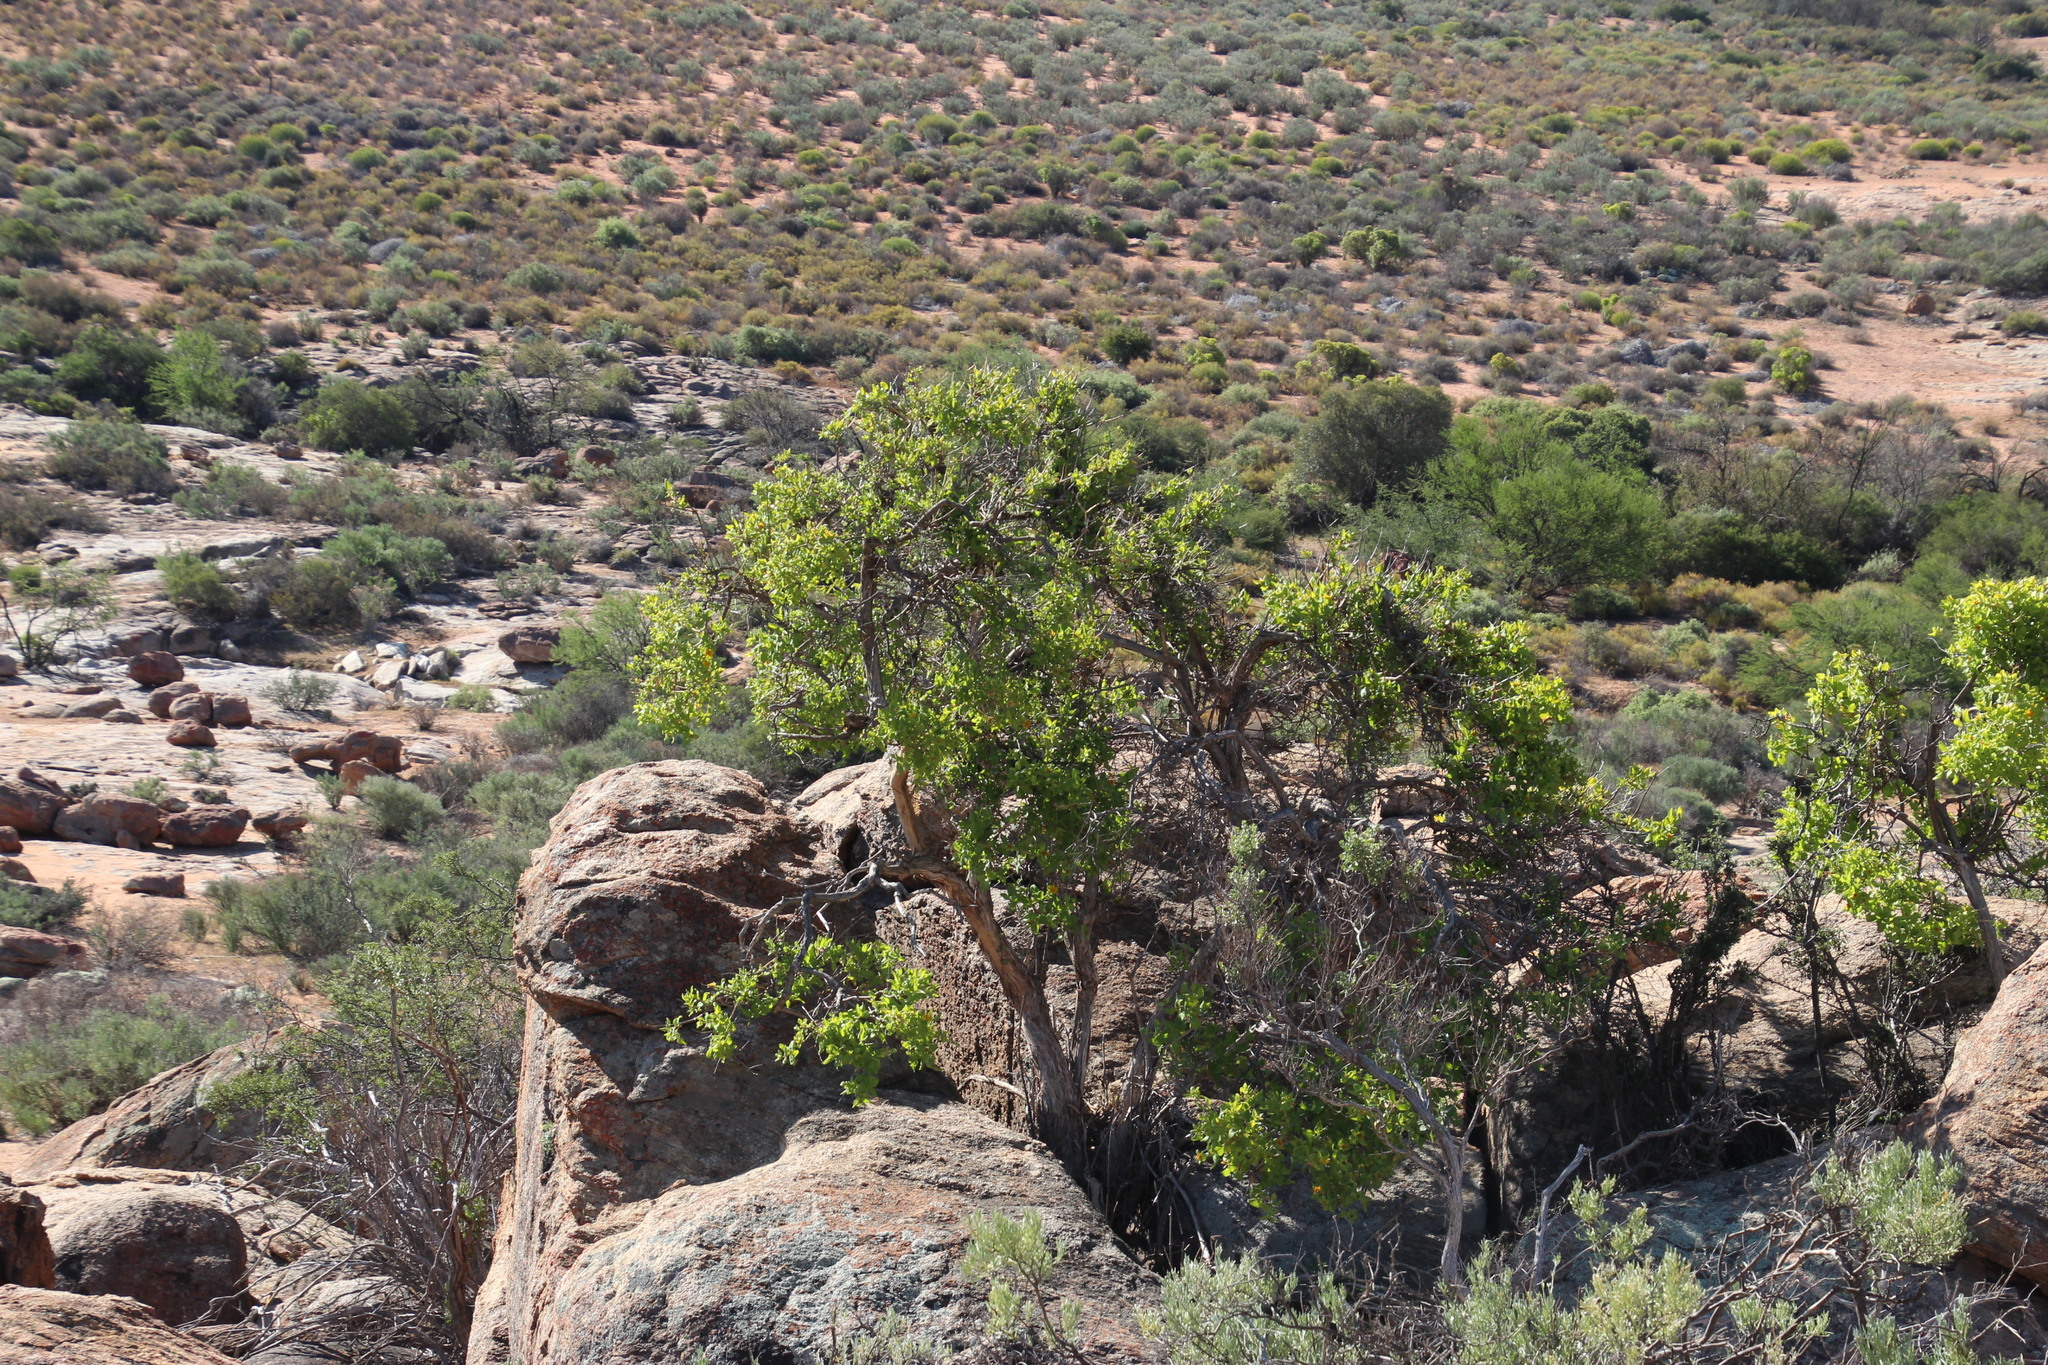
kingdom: Plantae
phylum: Tracheophyta
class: Magnoliopsida
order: Asterales
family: Asteraceae
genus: Didelta
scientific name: Didelta spinosa
